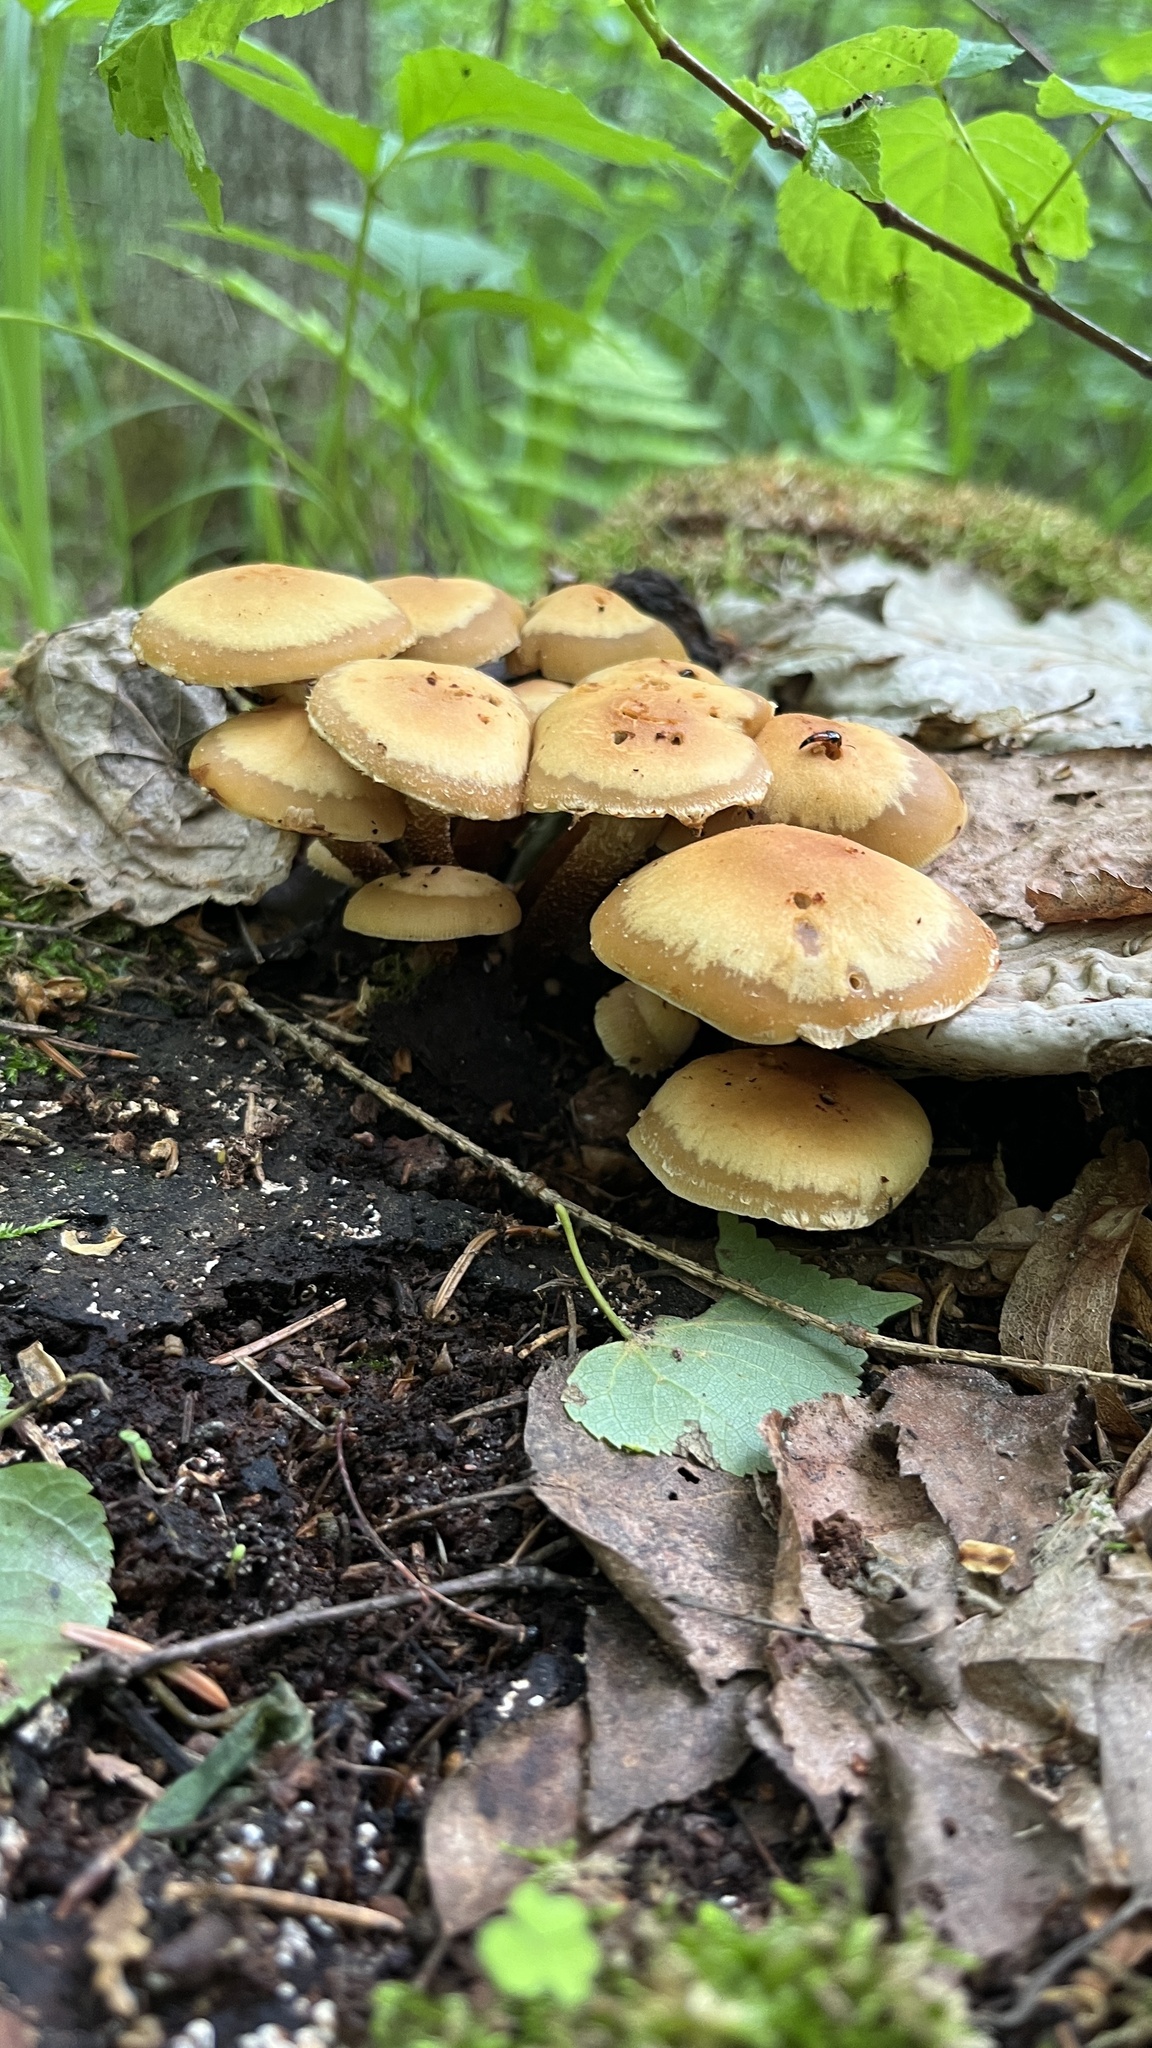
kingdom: Fungi
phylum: Basidiomycota
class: Agaricomycetes
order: Agaricales
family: Strophariaceae
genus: Kuehneromyces
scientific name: Kuehneromyces mutabilis
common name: Sheathed woodtuft
